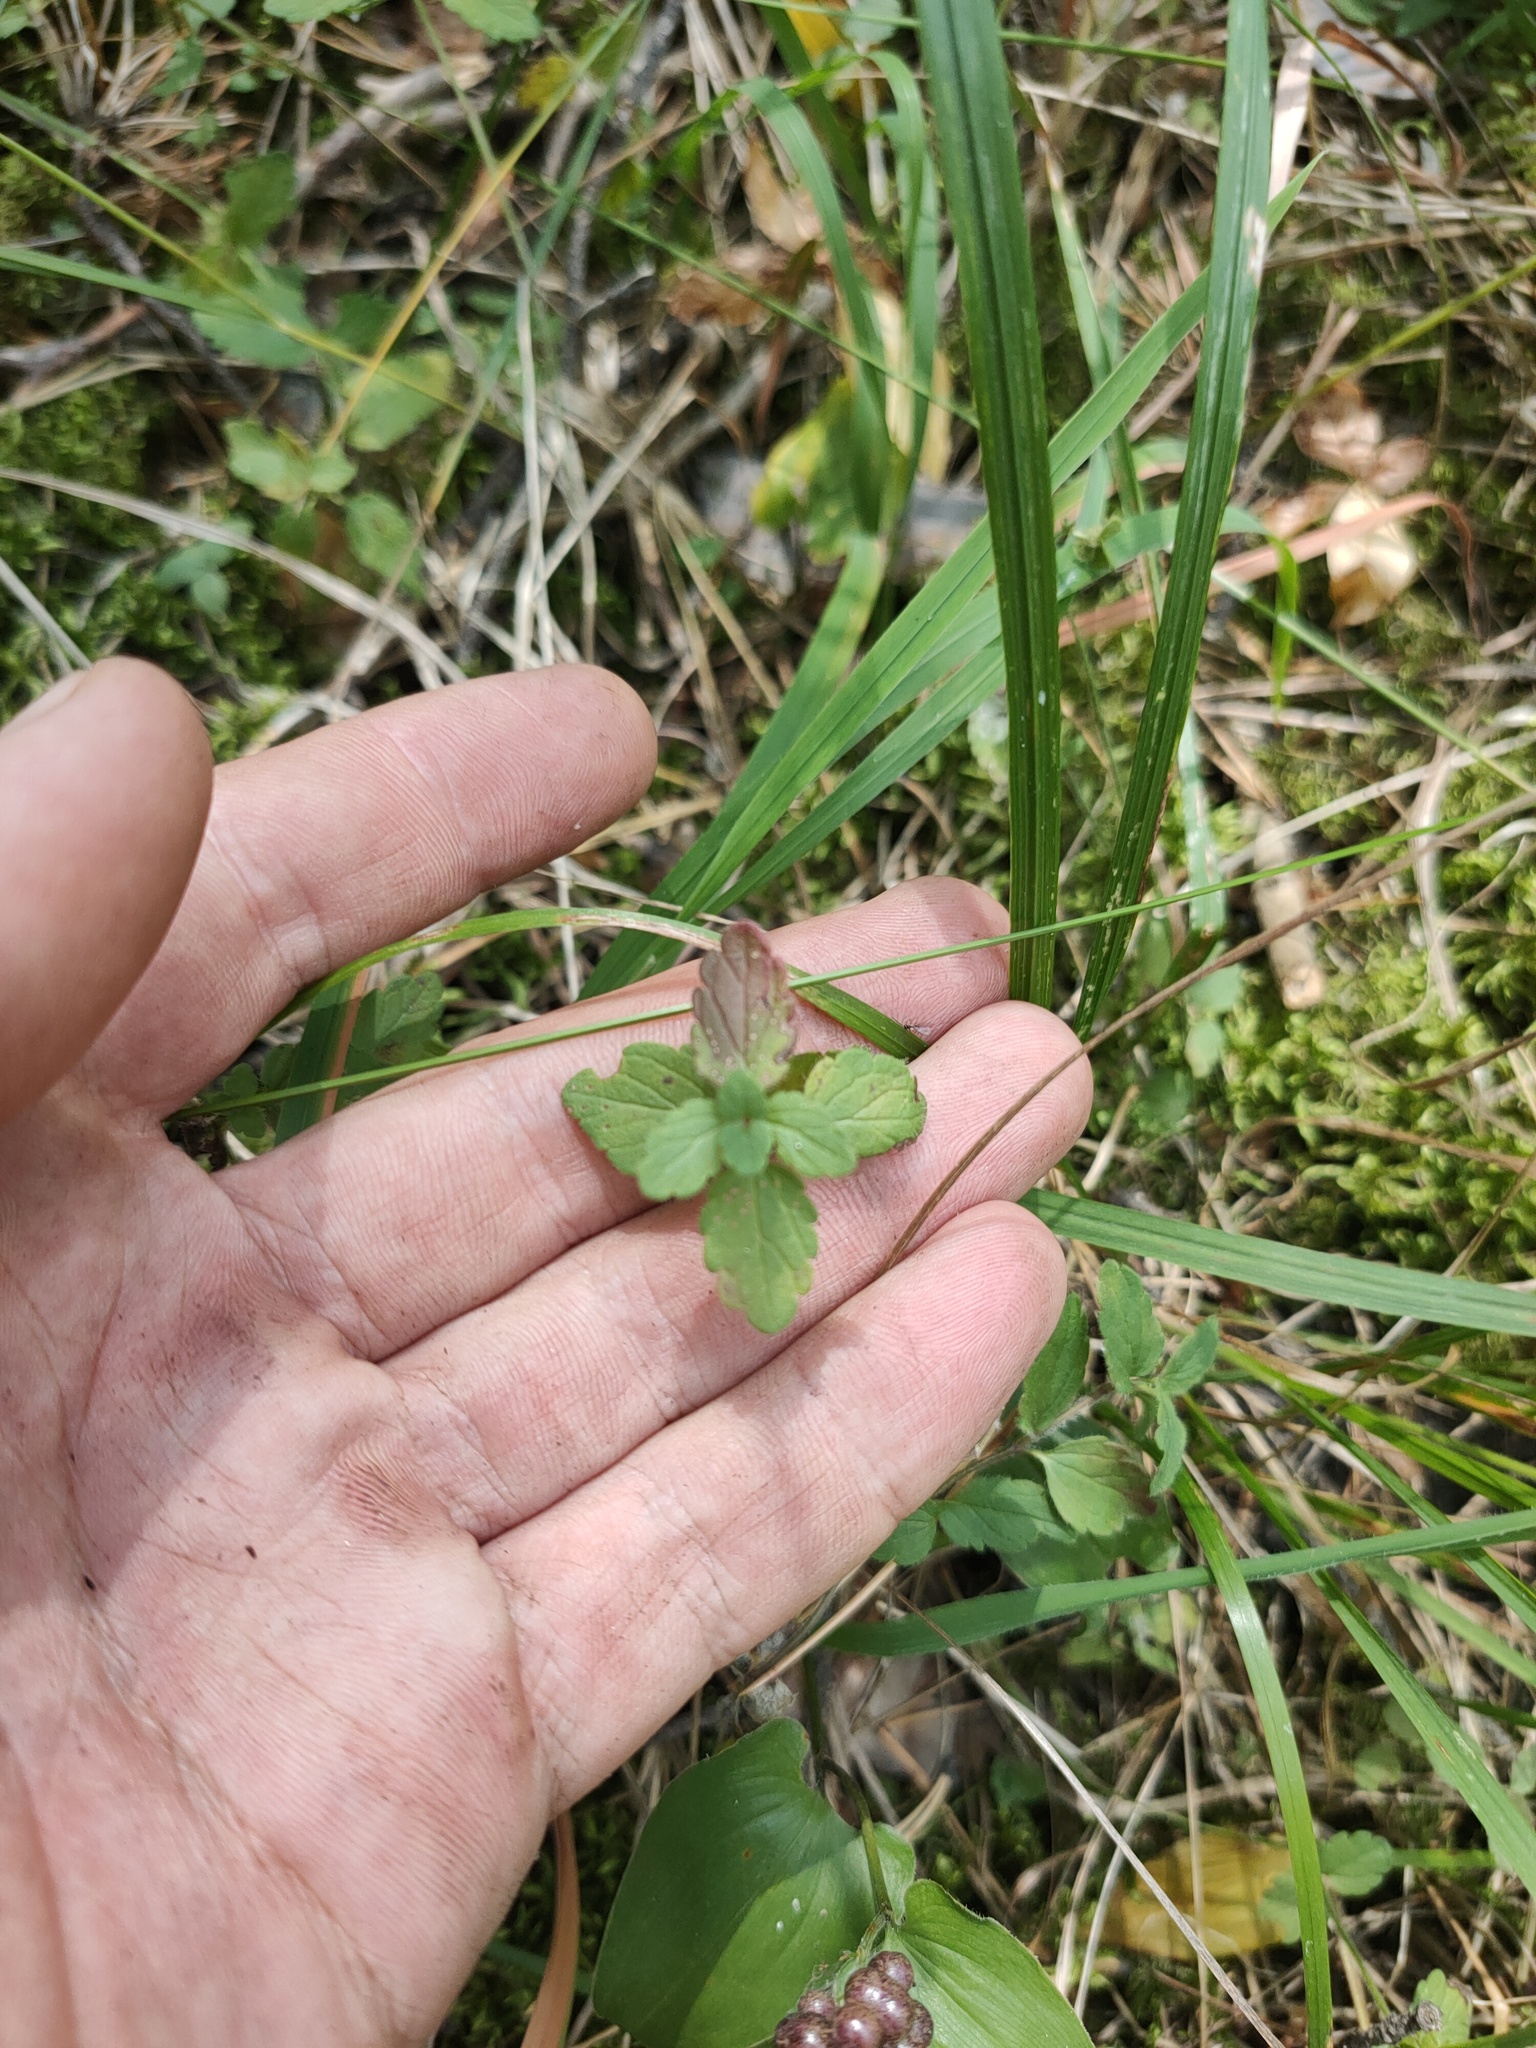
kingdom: Plantae
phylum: Tracheophyta
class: Magnoliopsida
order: Lamiales
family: Plantaginaceae
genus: Veronica
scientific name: Veronica chamaedrys
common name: Germander speedwell
